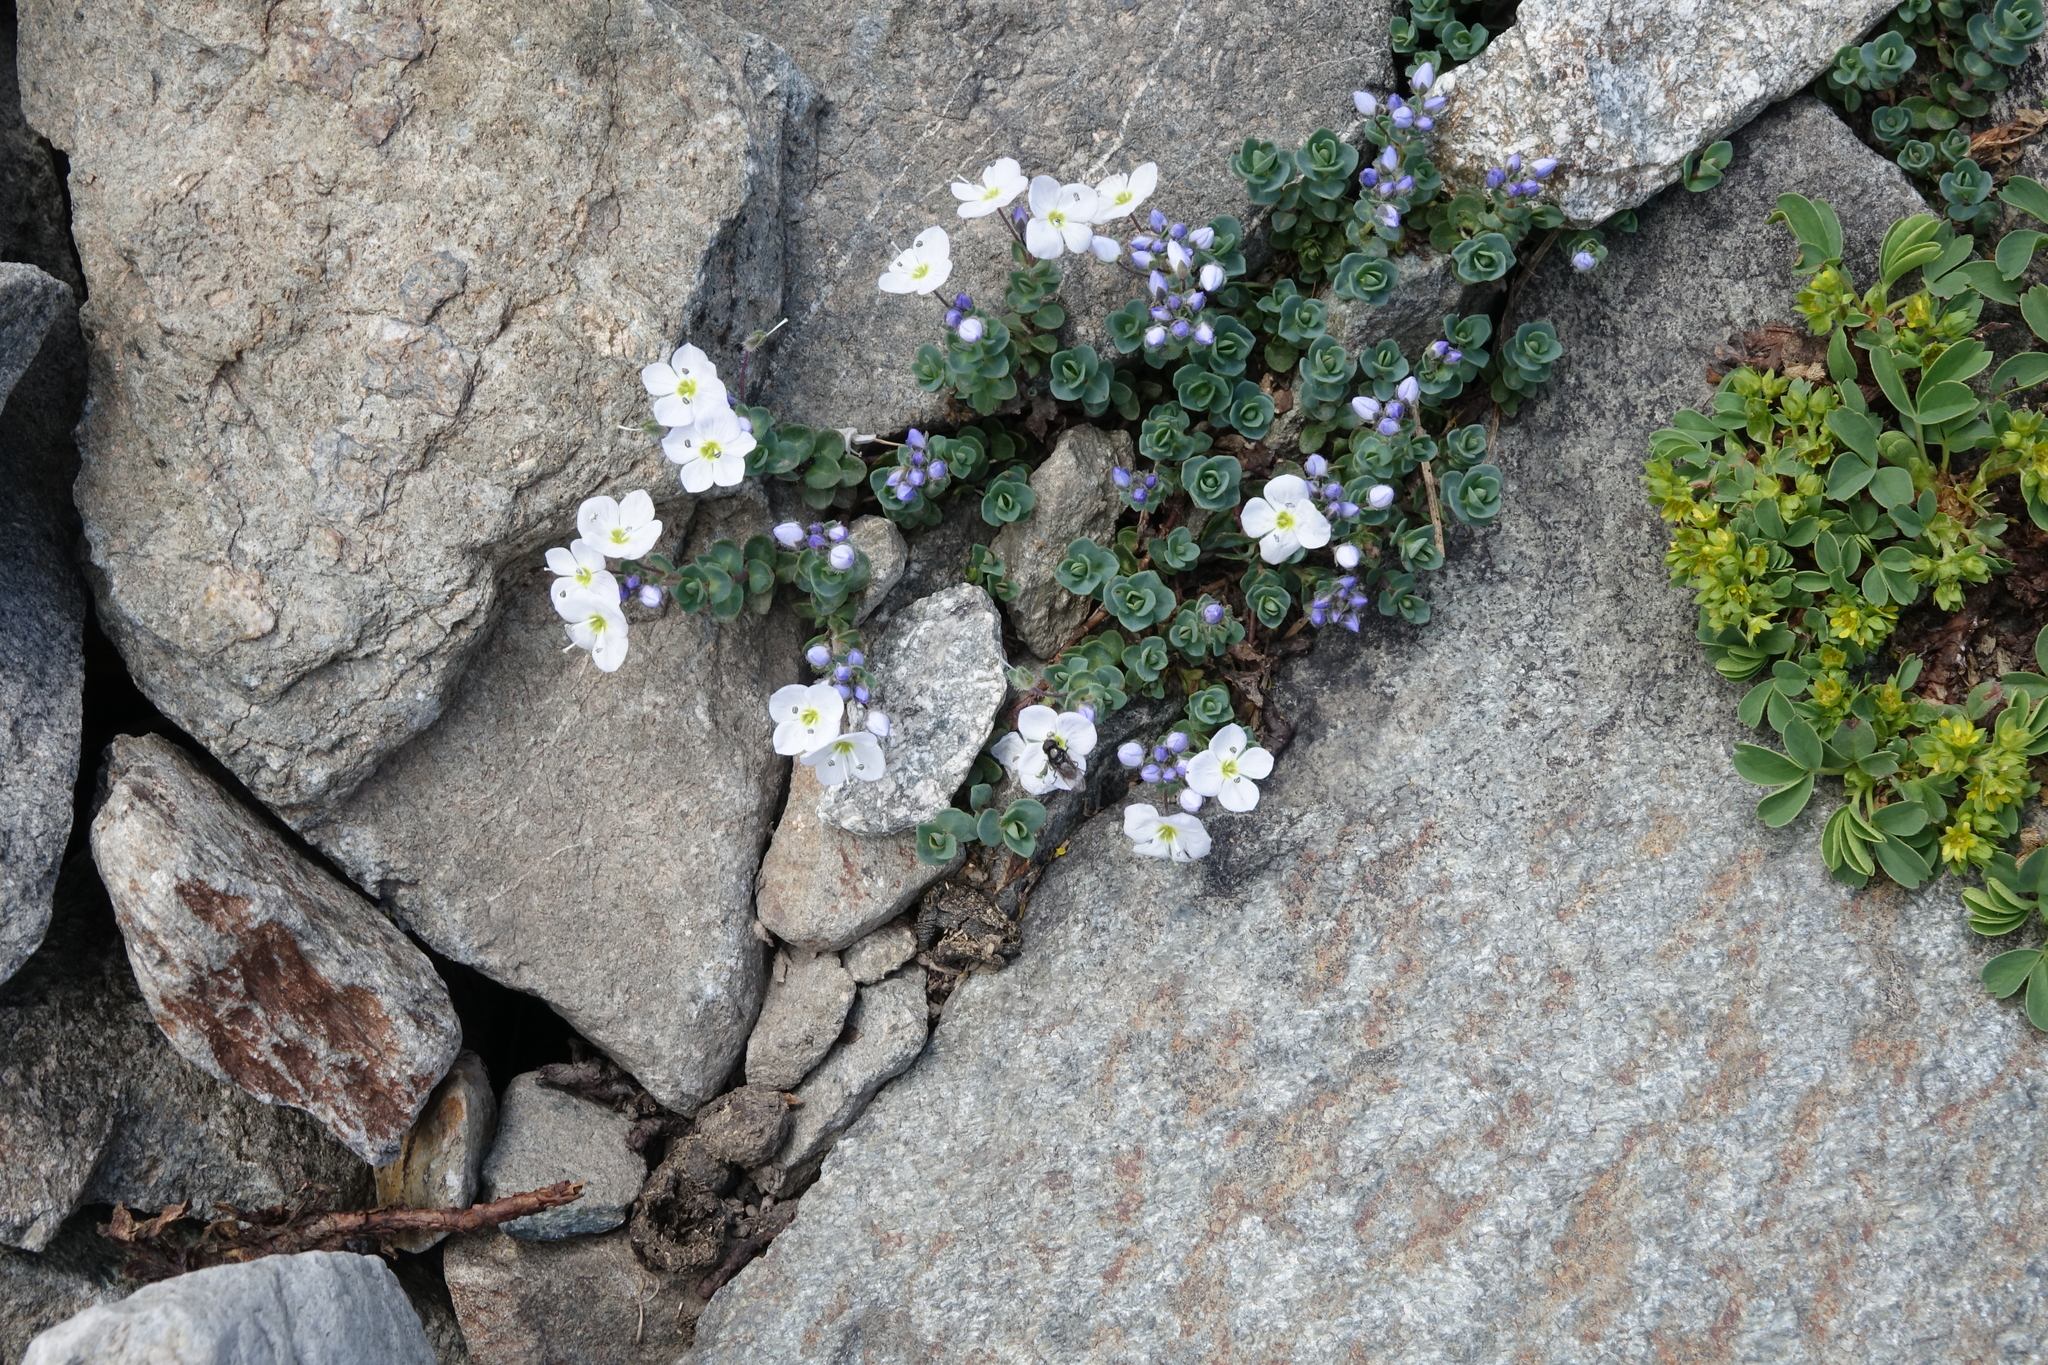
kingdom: Plantae
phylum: Tracheophyta
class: Magnoliopsida
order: Lamiales
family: Plantaginaceae
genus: Veronica
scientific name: Veronica telephiifolia
